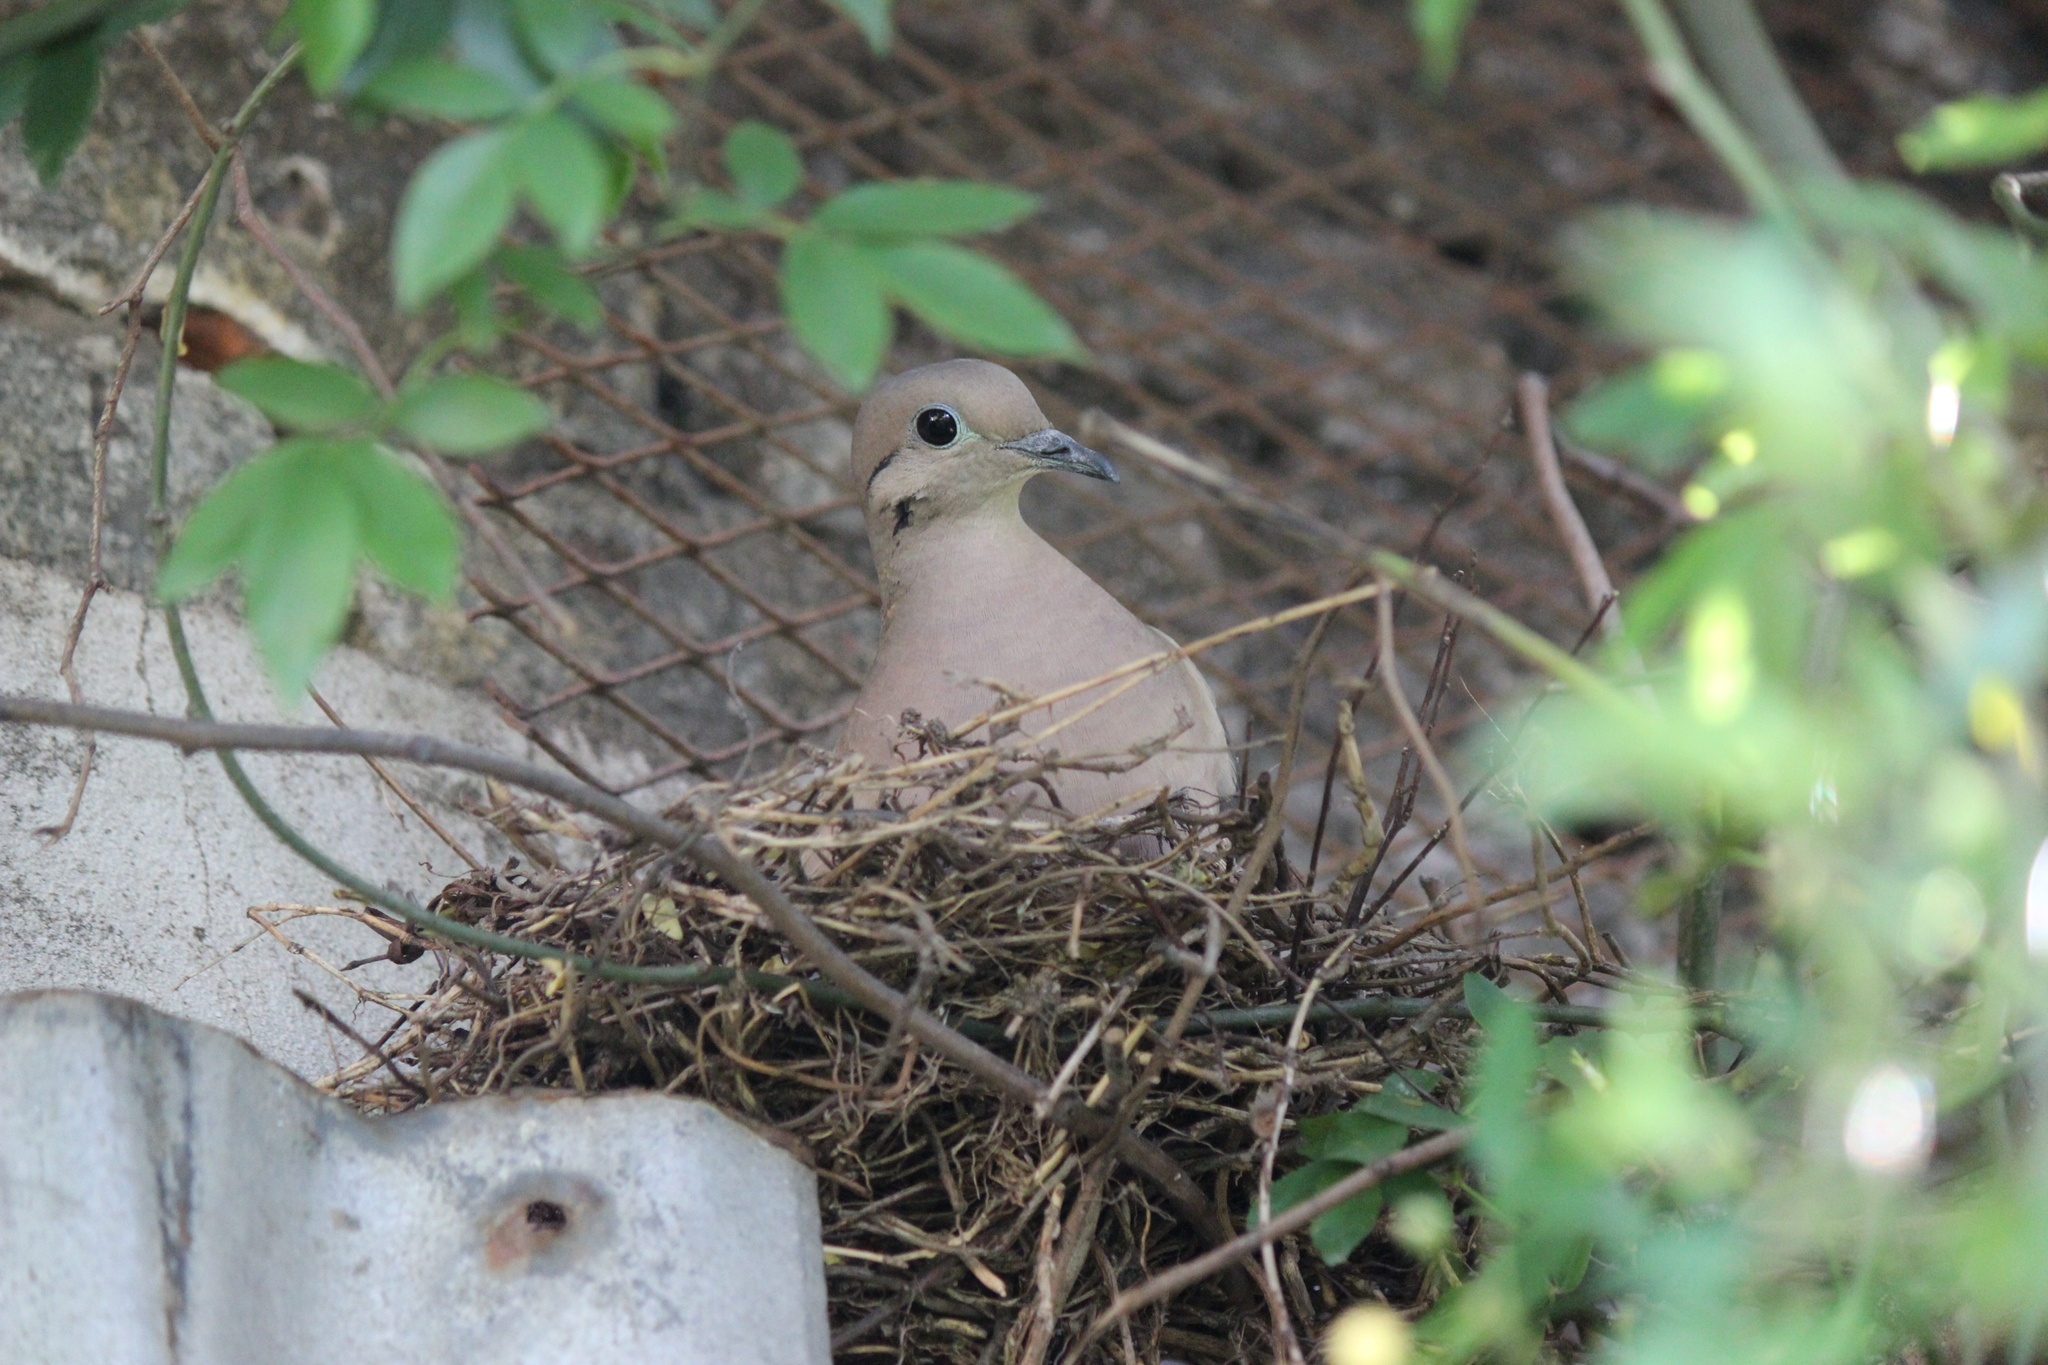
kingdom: Animalia
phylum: Chordata
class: Aves
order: Columbiformes
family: Columbidae
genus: Zenaida
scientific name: Zenaida auriculata
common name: Eared dove
